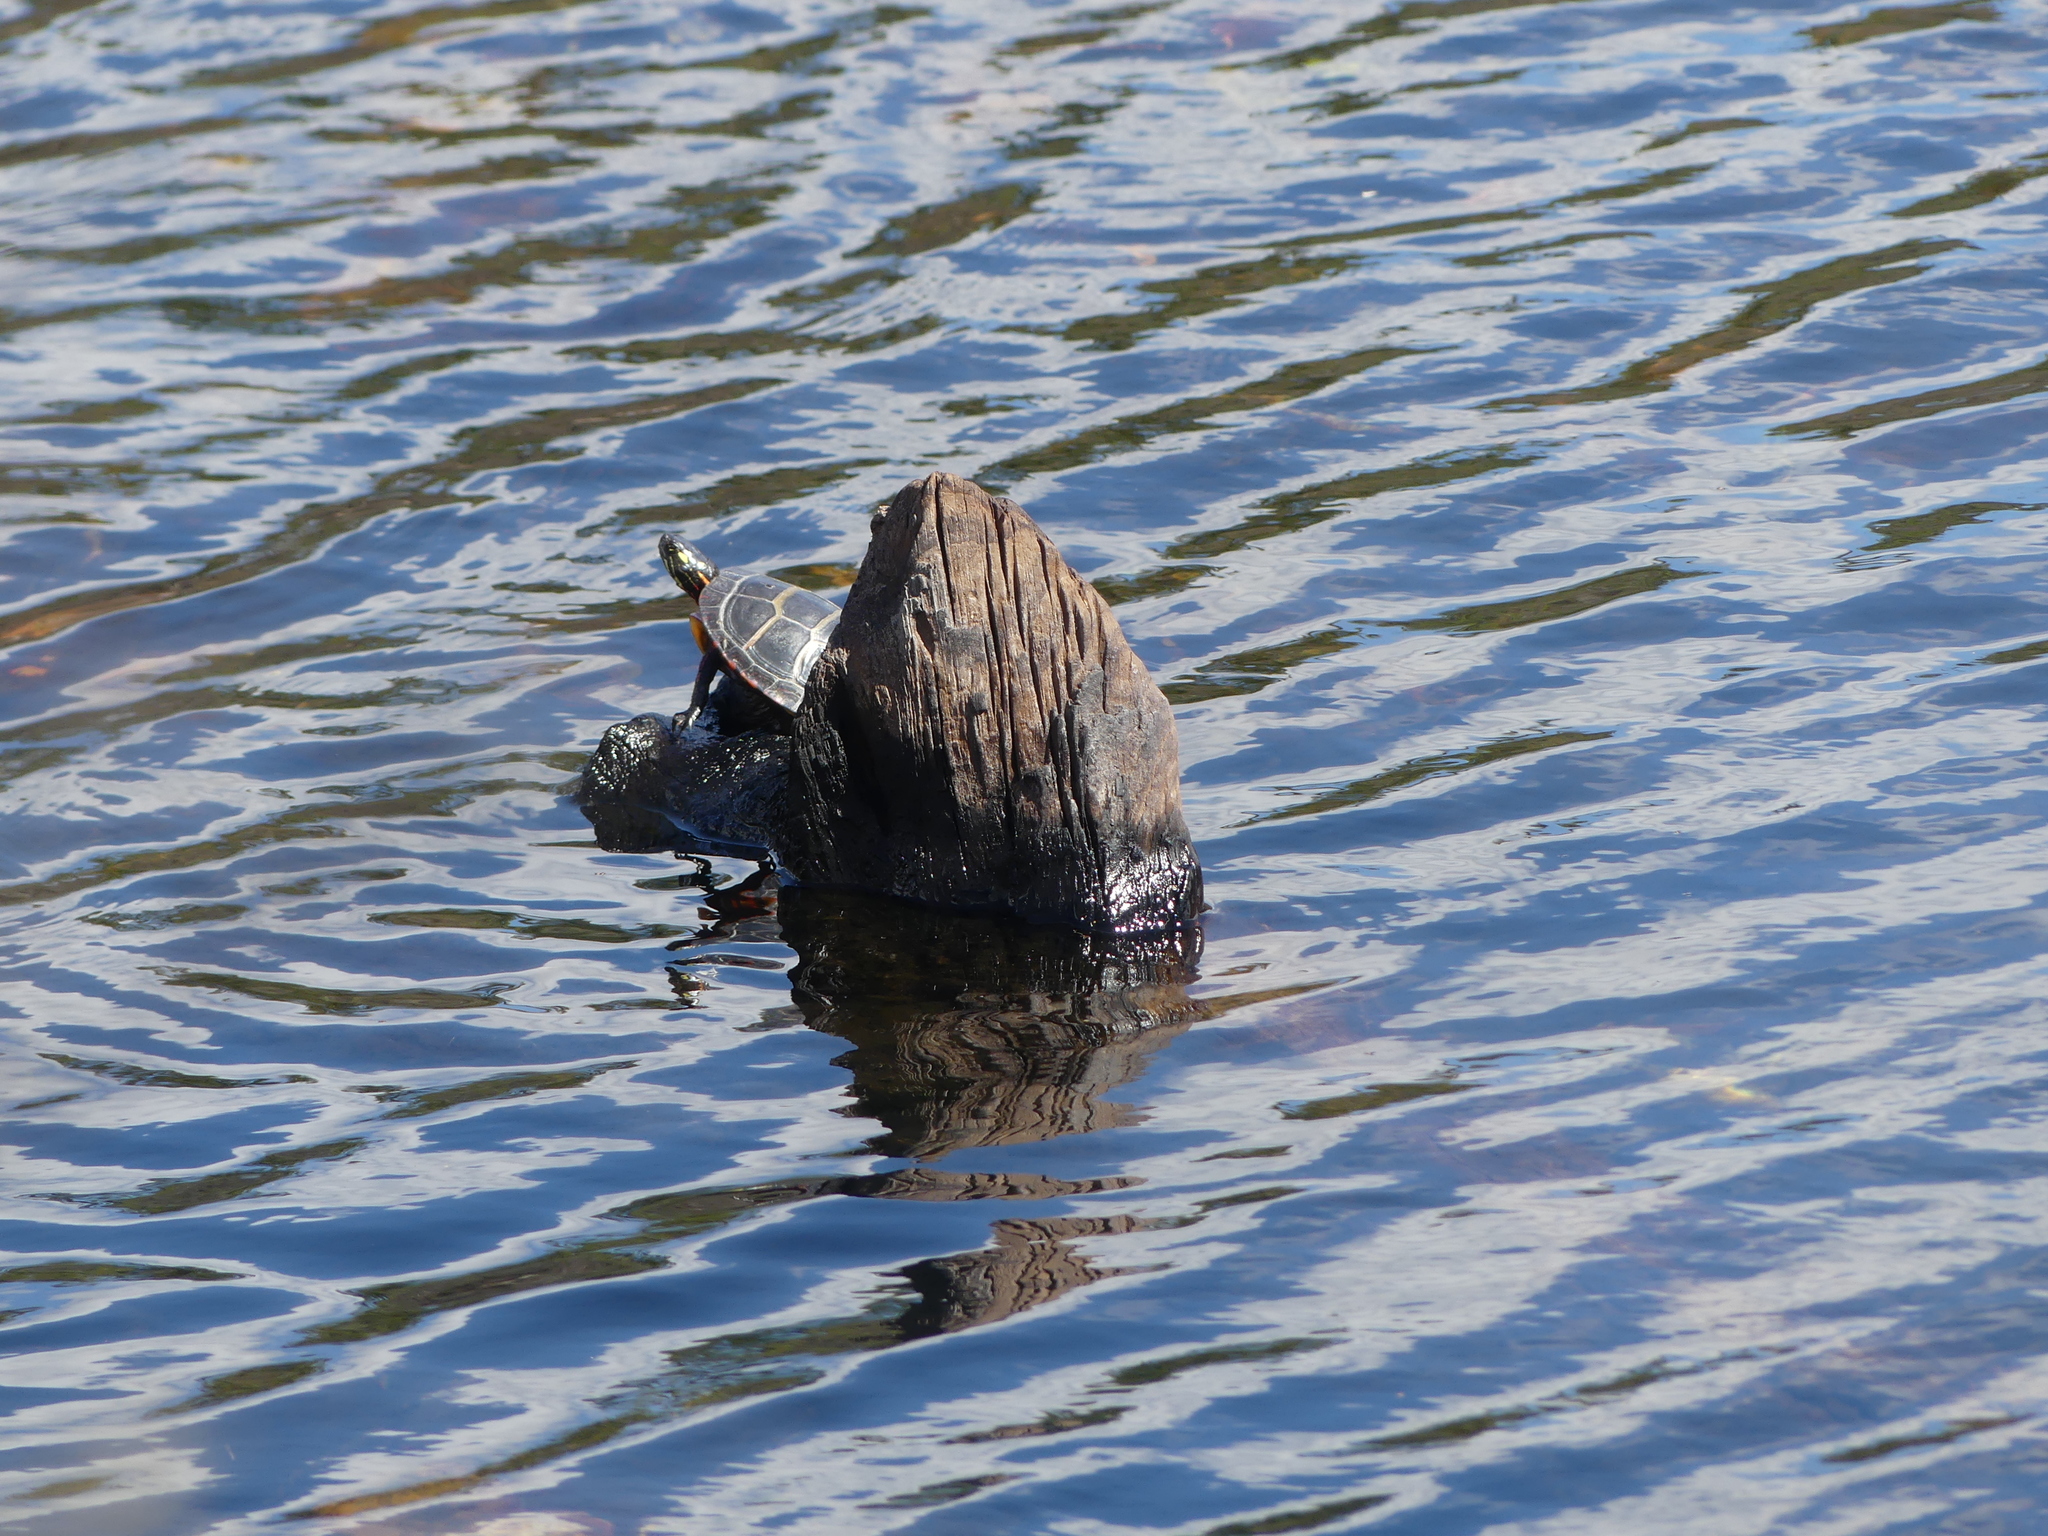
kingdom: Animalia
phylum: Chordata
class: Testudines
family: Emydidae
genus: Chrysemys
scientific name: Chrysemys picta
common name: Painted turtle
